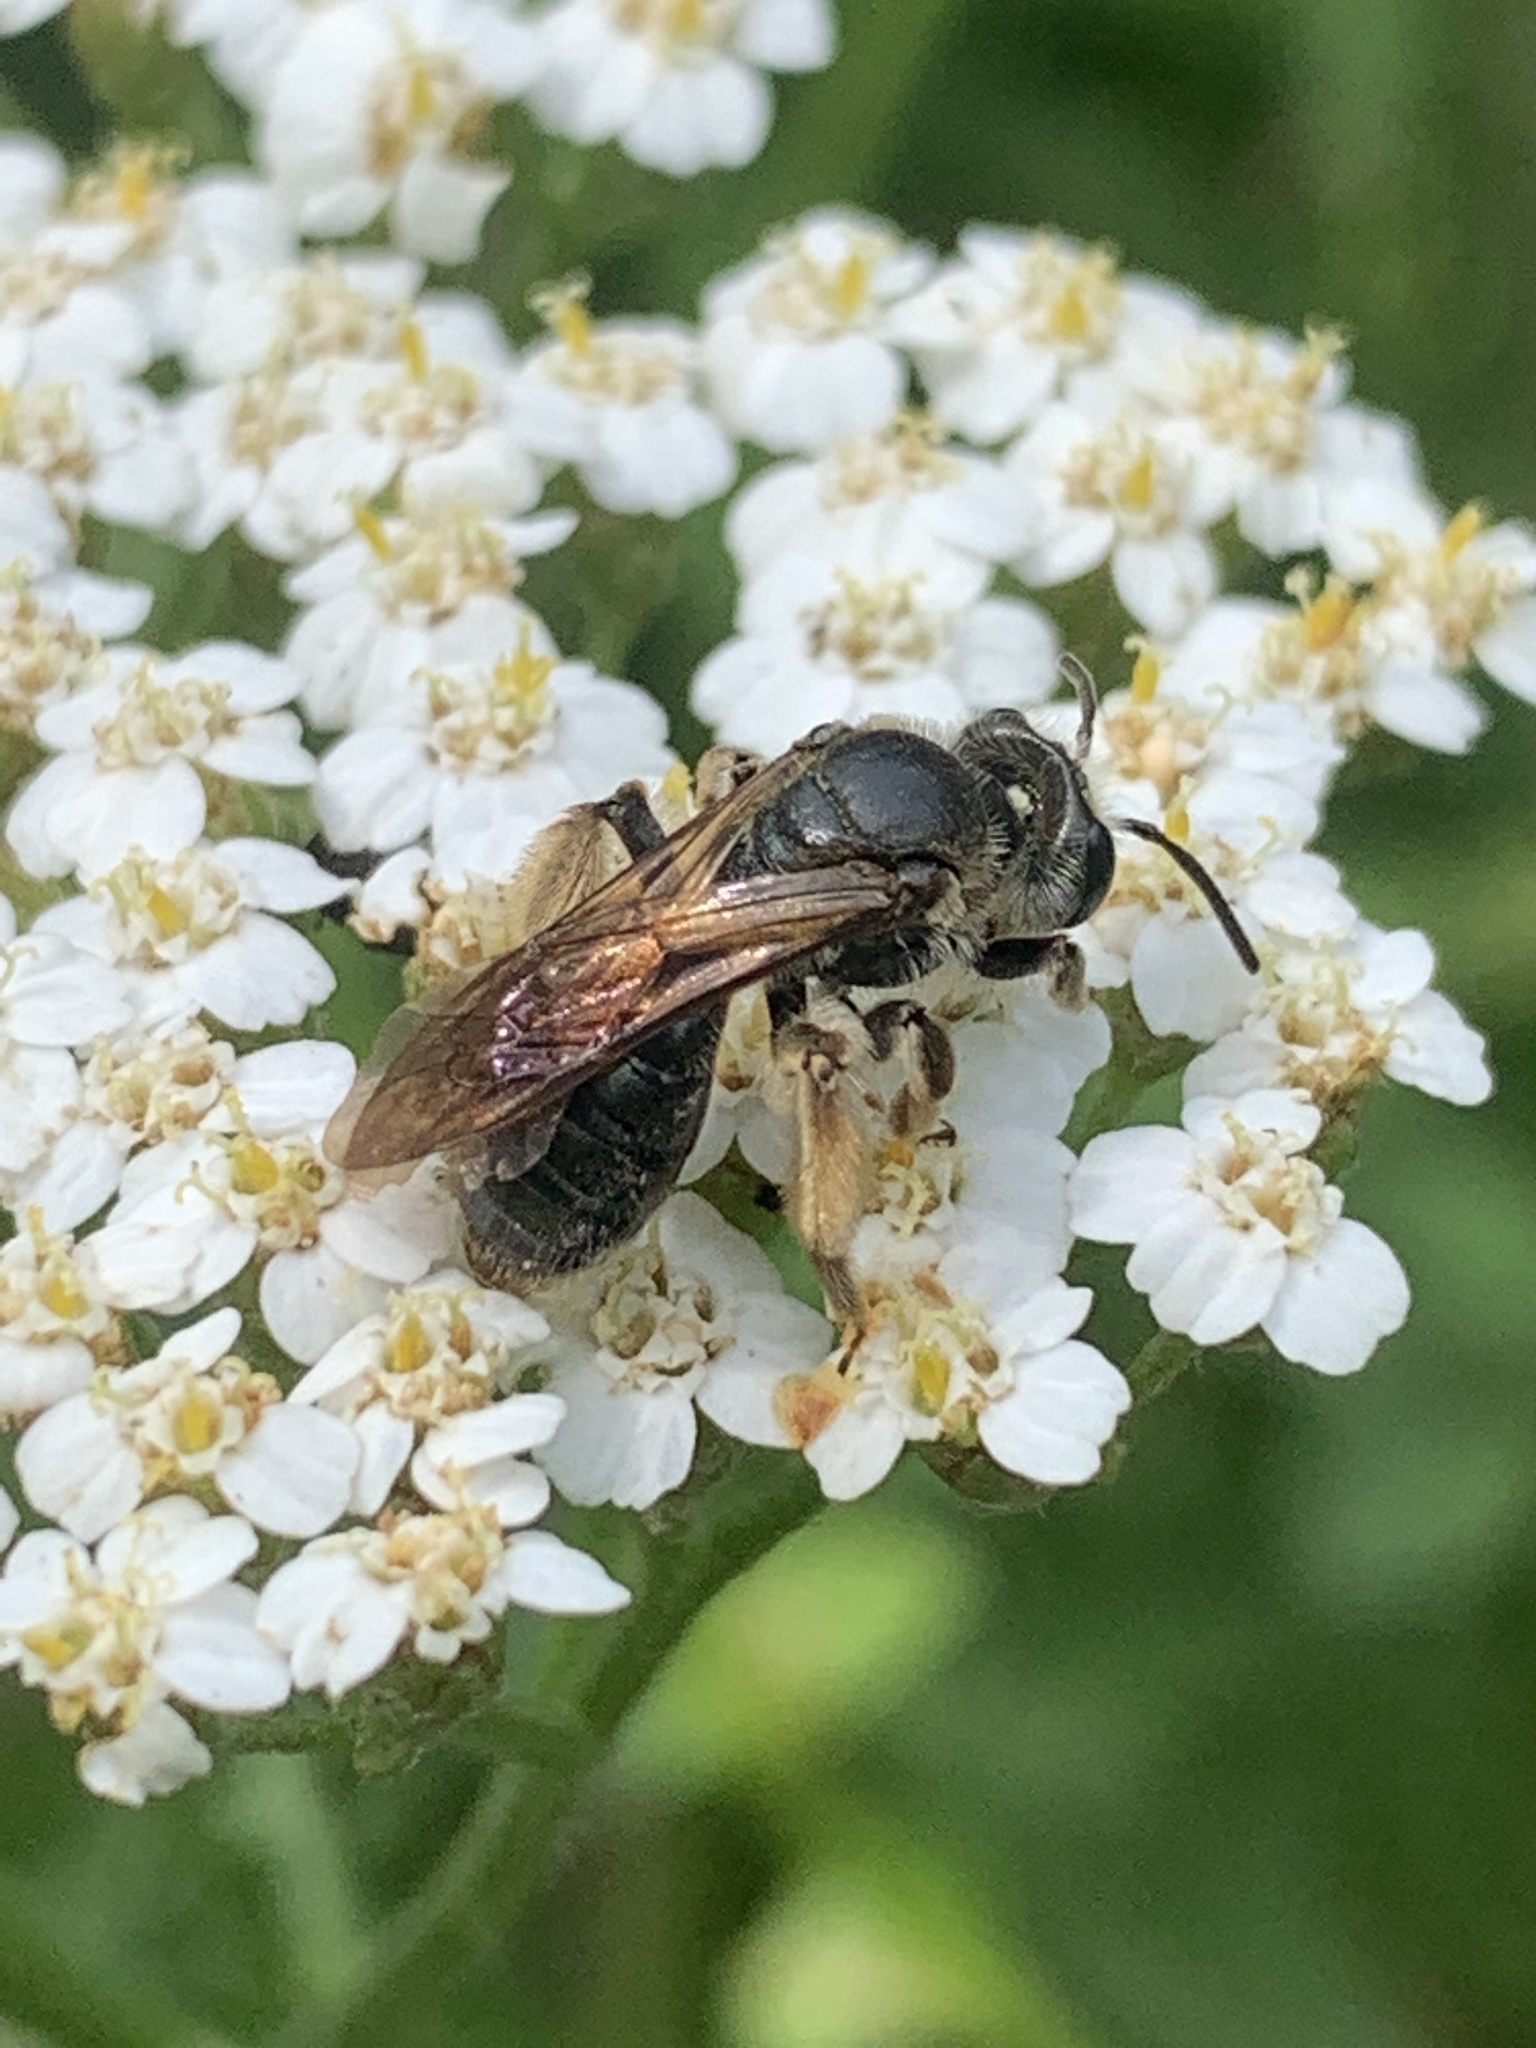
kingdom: Animalia
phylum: Arthropoda
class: Insecta
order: Hymenoptera
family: Andrenidae
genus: Andrena
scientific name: Andrena
